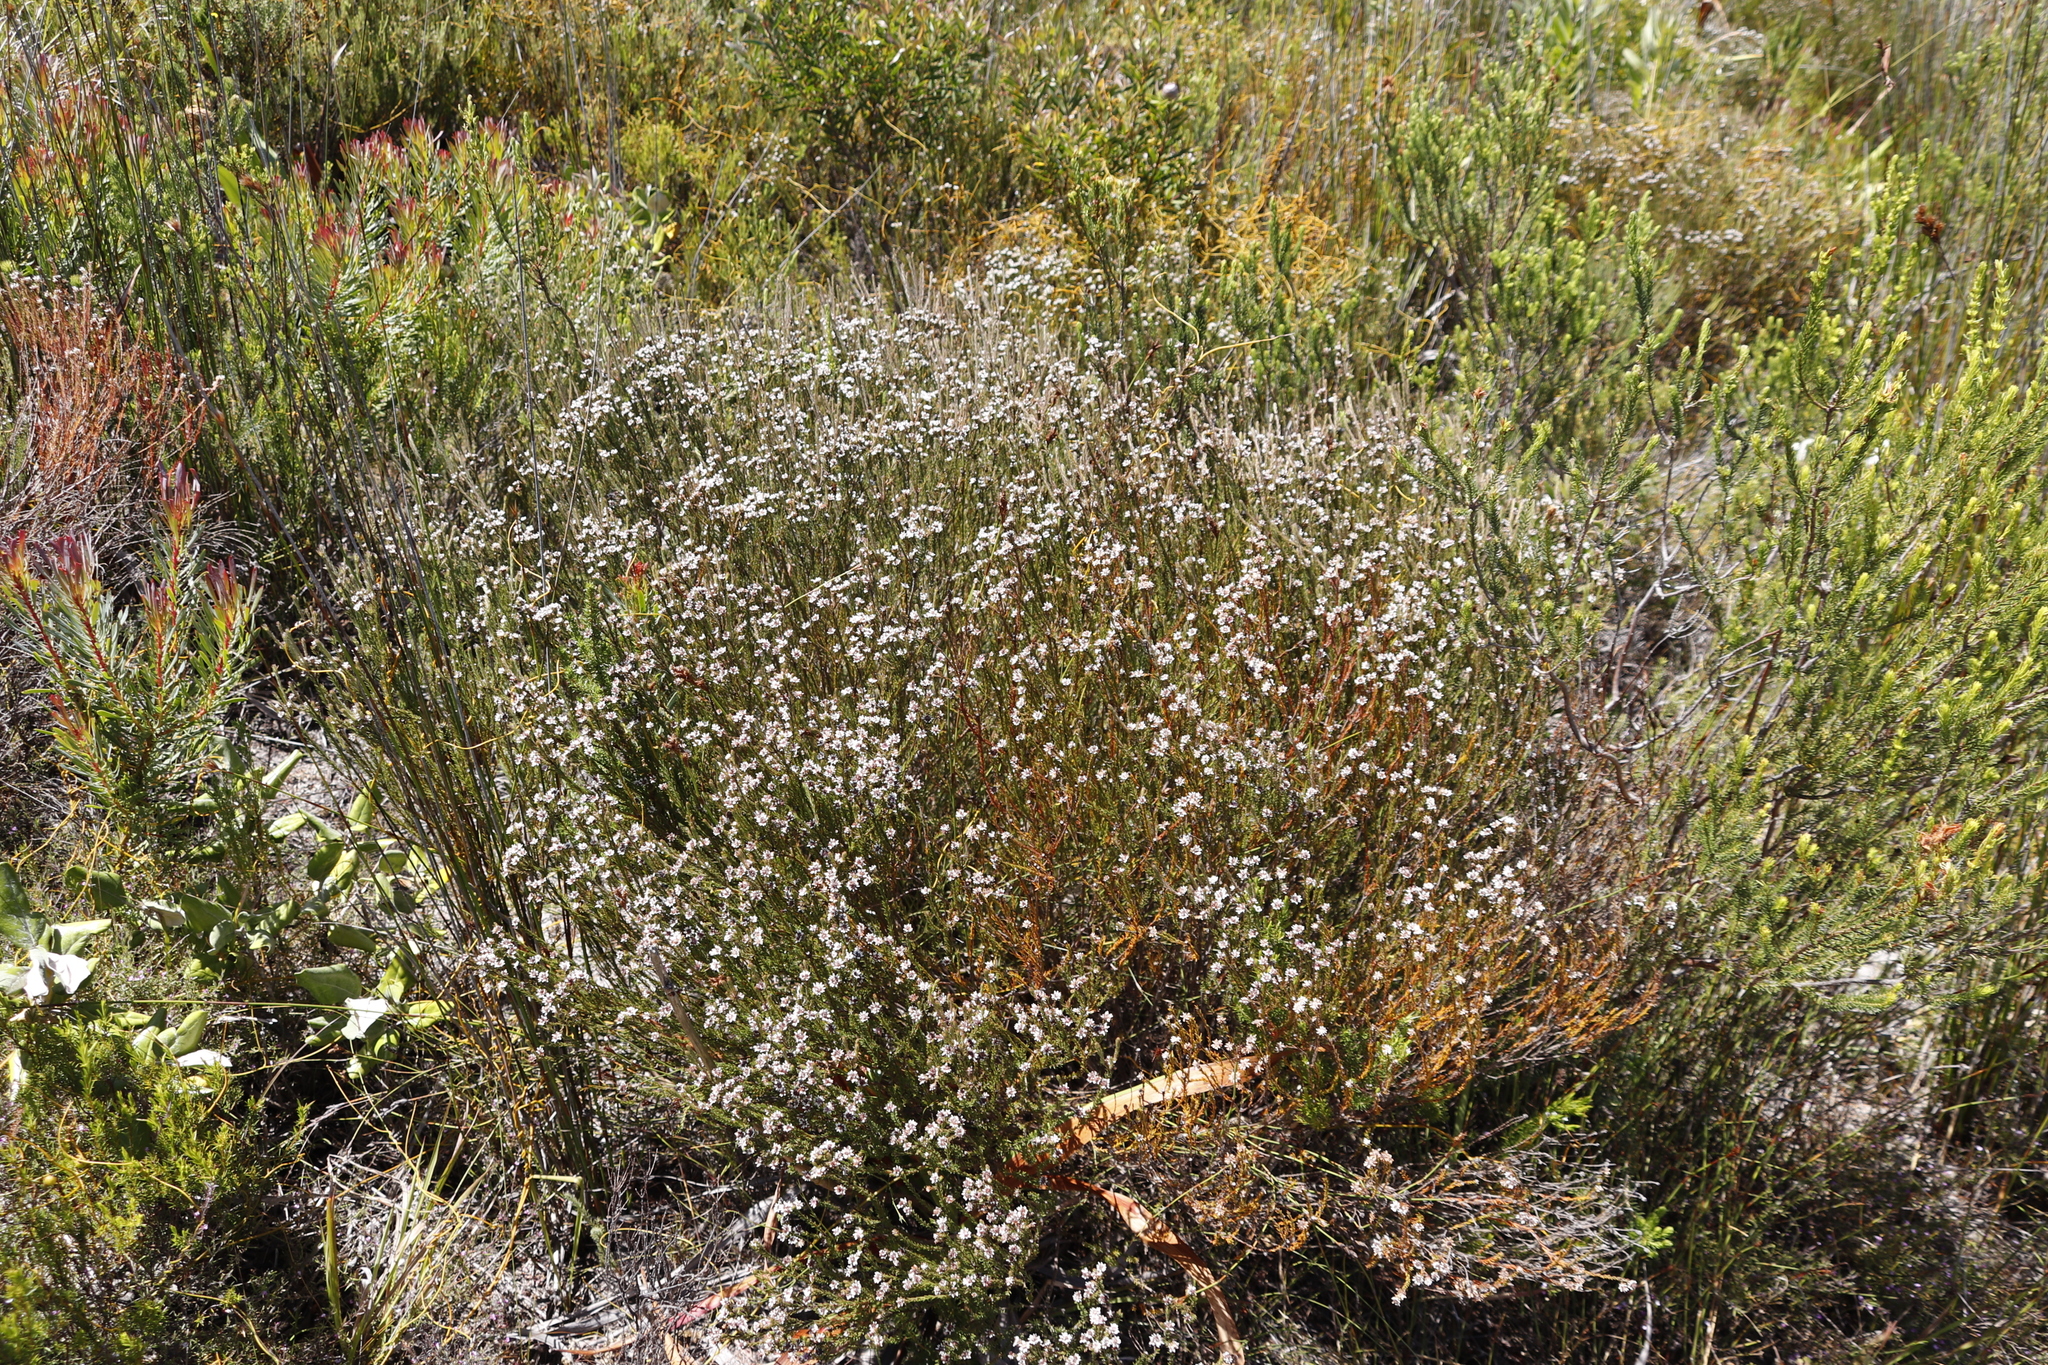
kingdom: Plantae
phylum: Tracheophyta
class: Magnoliopsida
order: Bruniales
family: Bruniaceae
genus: Staavia
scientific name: Staavia radiata
